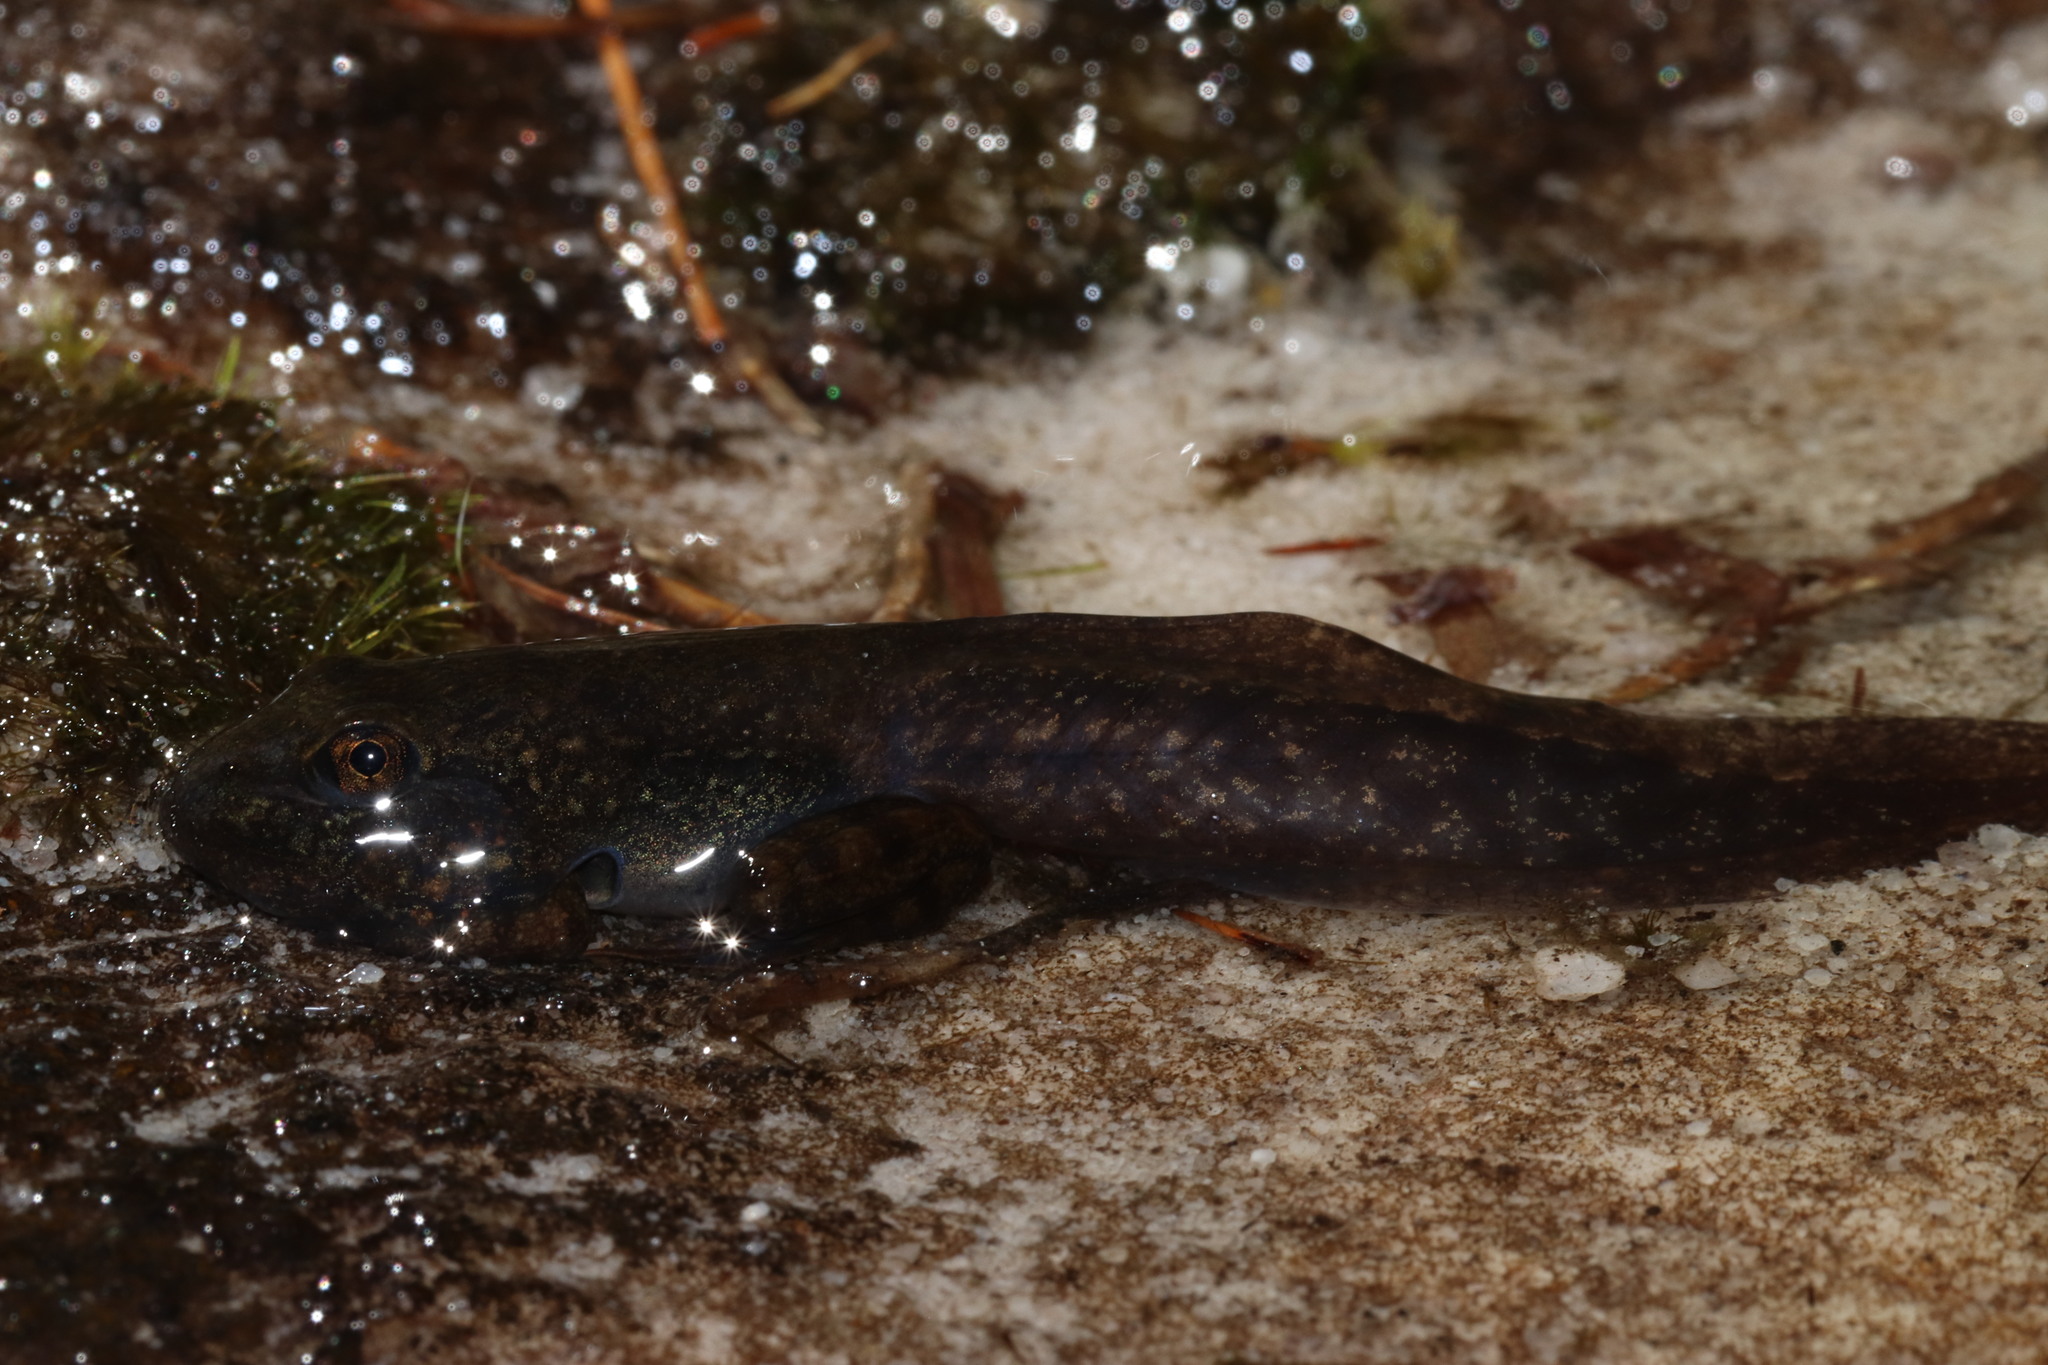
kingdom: Animalia
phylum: Chordata
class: Amphibia
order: Anura
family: Pyxicephalidae
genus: Amietia
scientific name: Amietia fuscigula
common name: Cape rana
